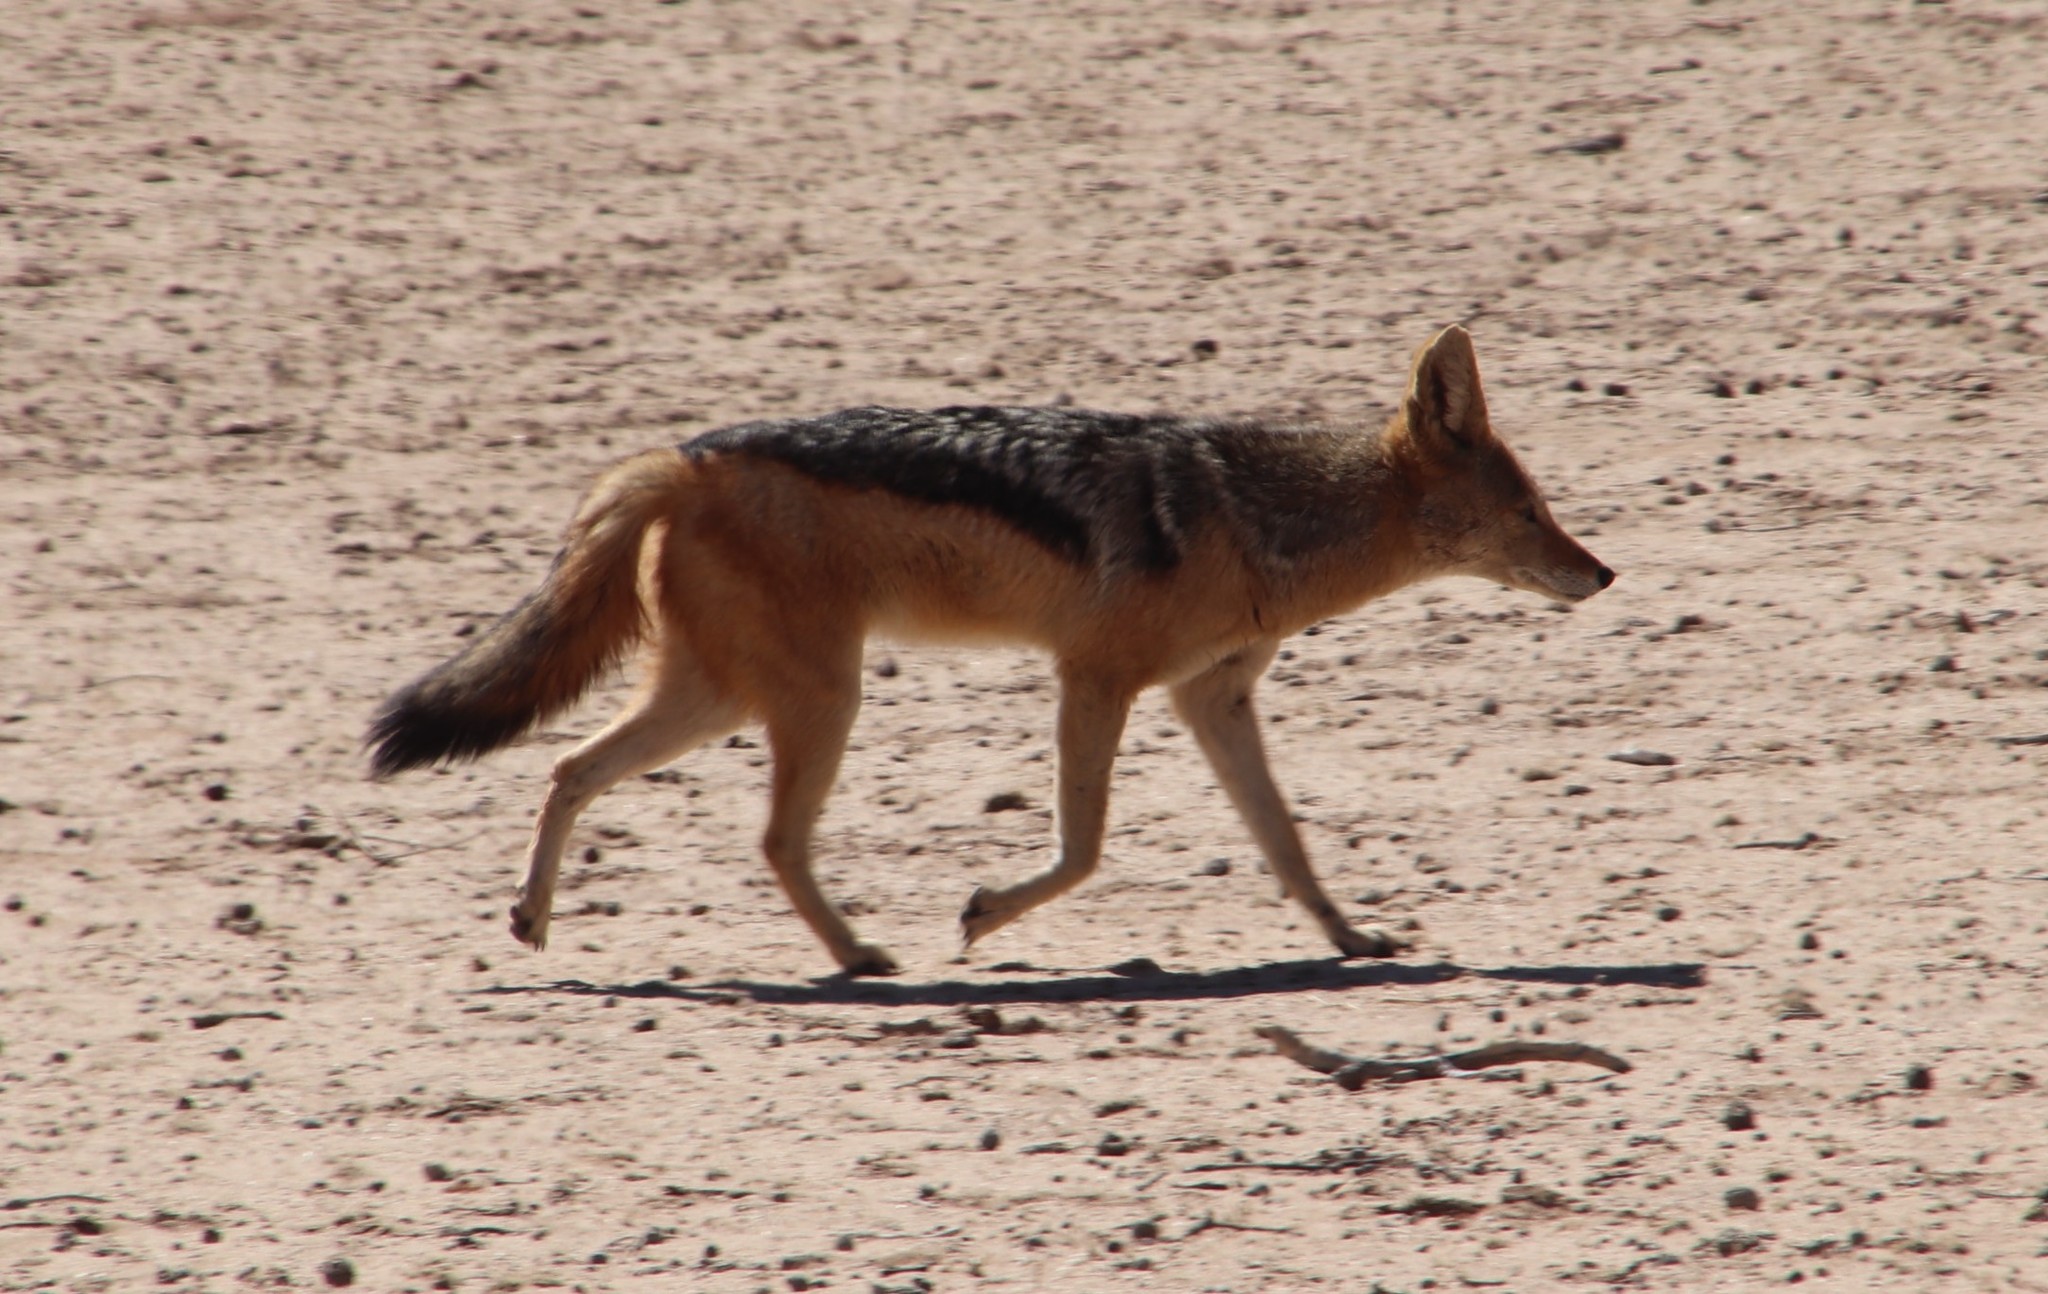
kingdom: Animalia
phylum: Chordata
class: Mammalia
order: Carnivora
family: Canidae
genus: Lupulella
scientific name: Lupulella
